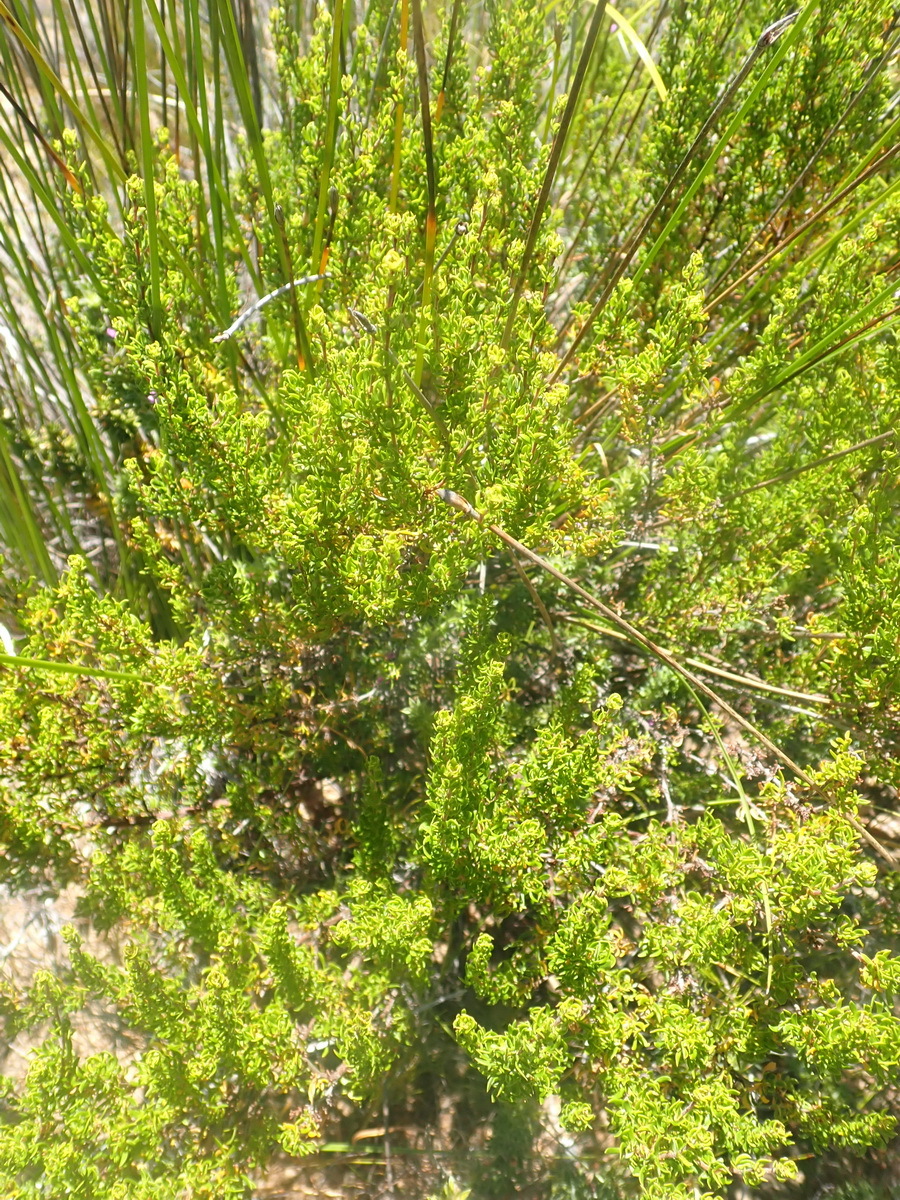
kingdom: Plantae
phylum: Tracheophyta
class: Magnoliopsida
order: Rosales
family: Rosaceae
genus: Cliffortia
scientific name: Cliffortia falcata
